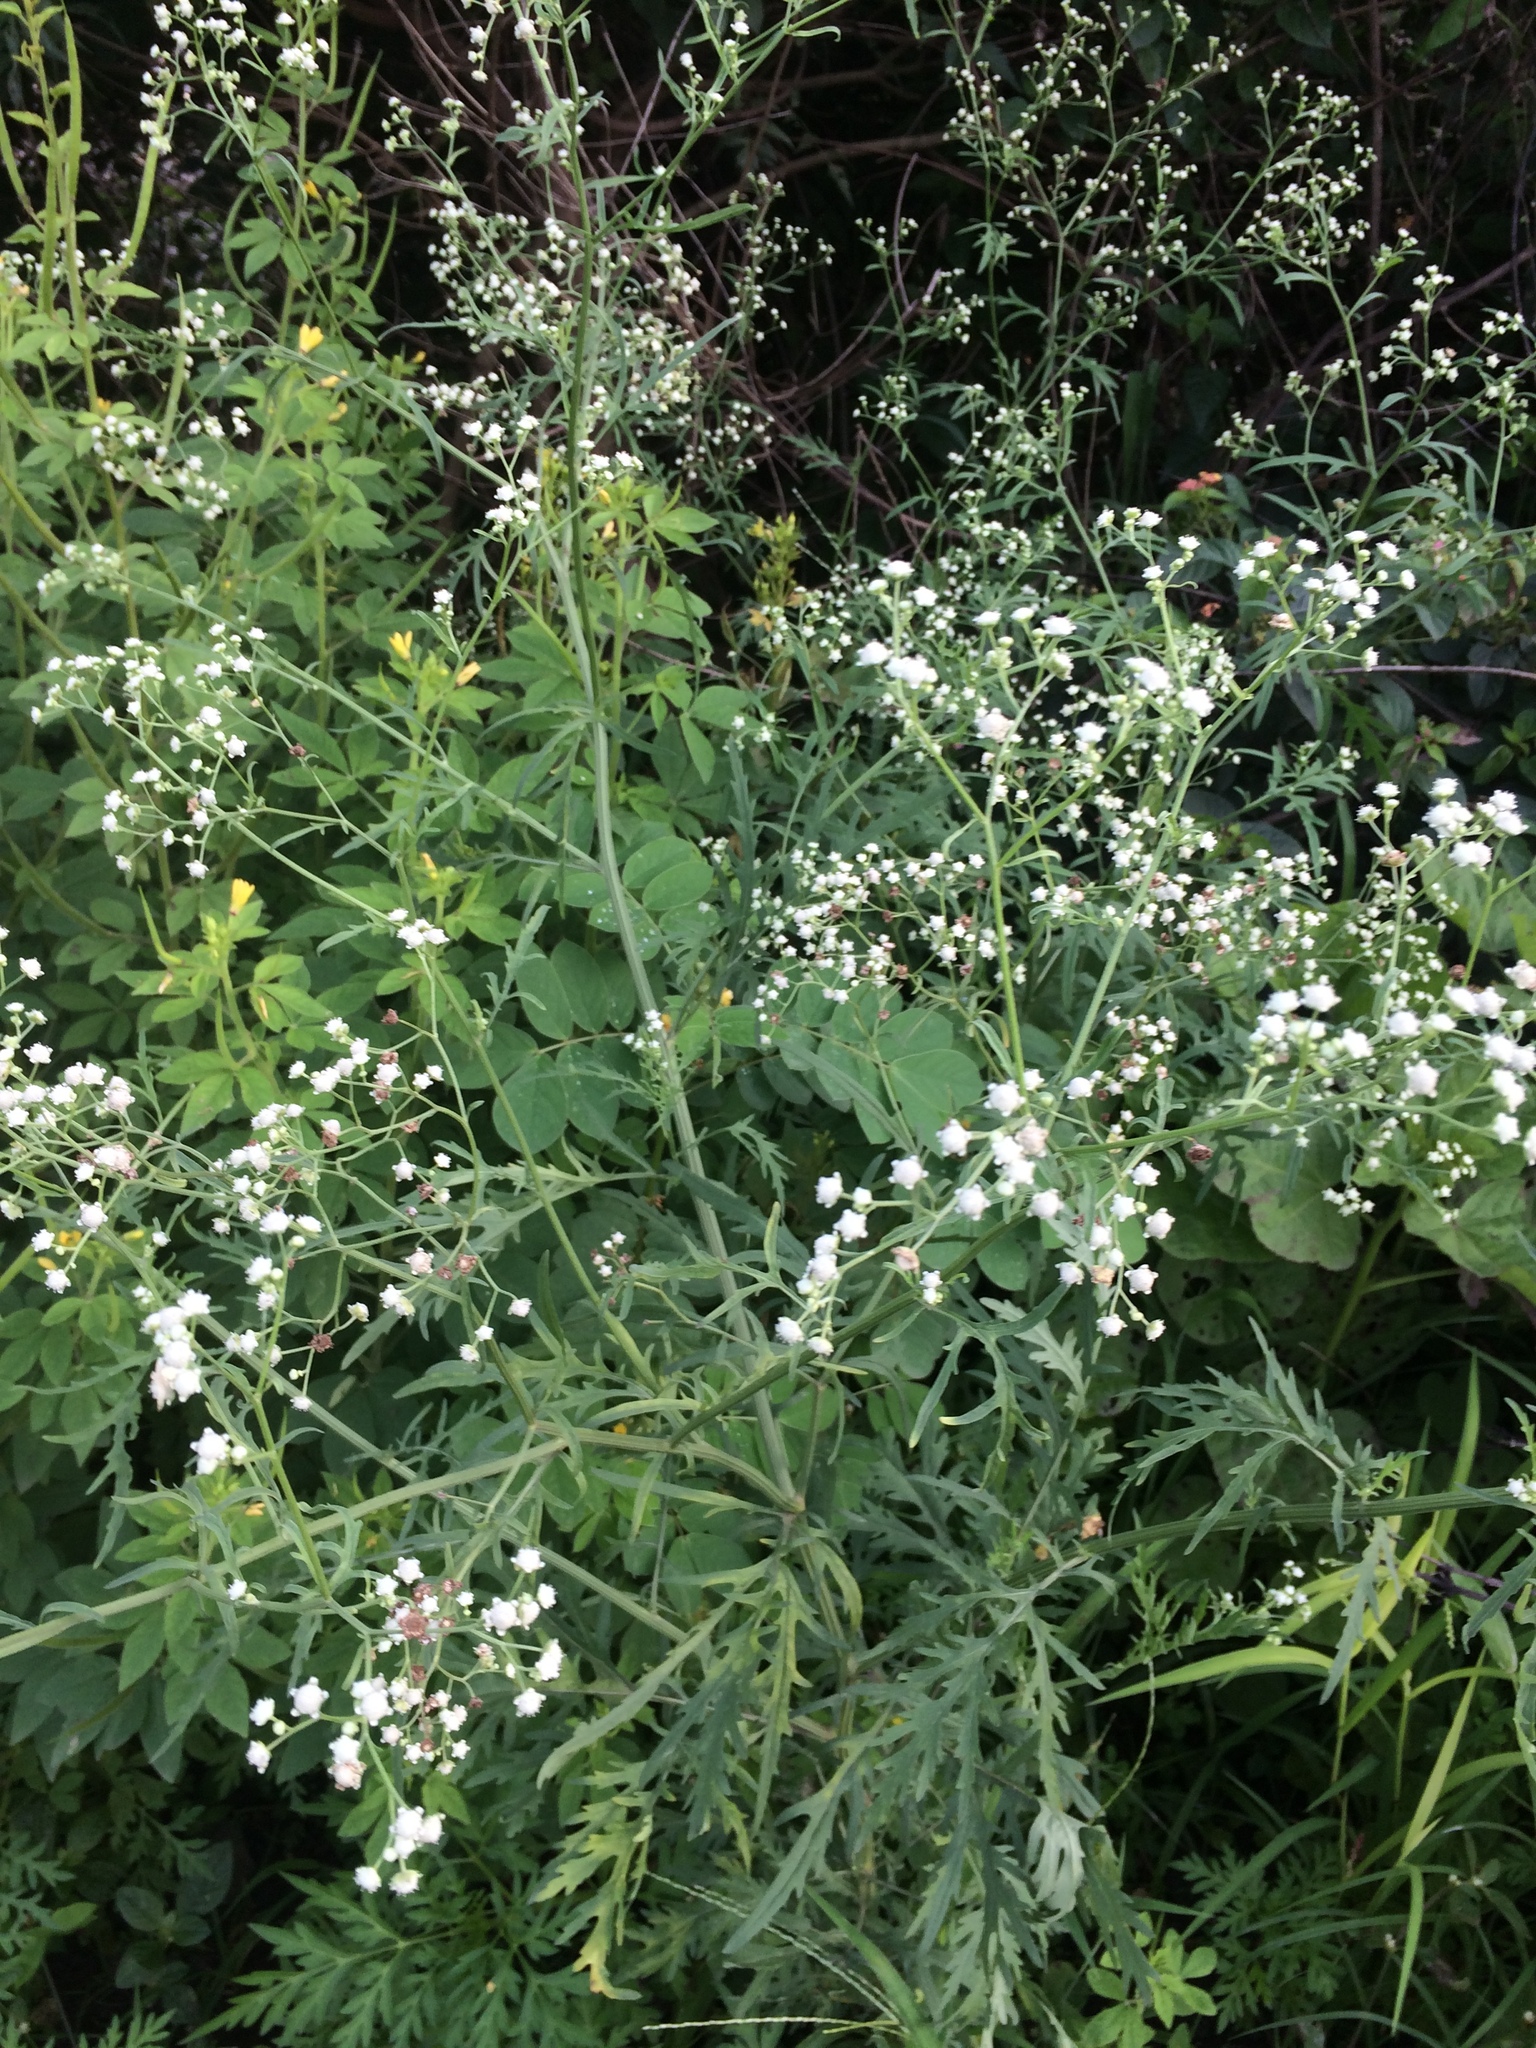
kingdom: Plantae
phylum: Tracheophyta
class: Magnoliopsida
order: Asterales
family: Asteraceae
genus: Parthenium
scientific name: Parthenium hysterophorus
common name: Santa maria feverfew
